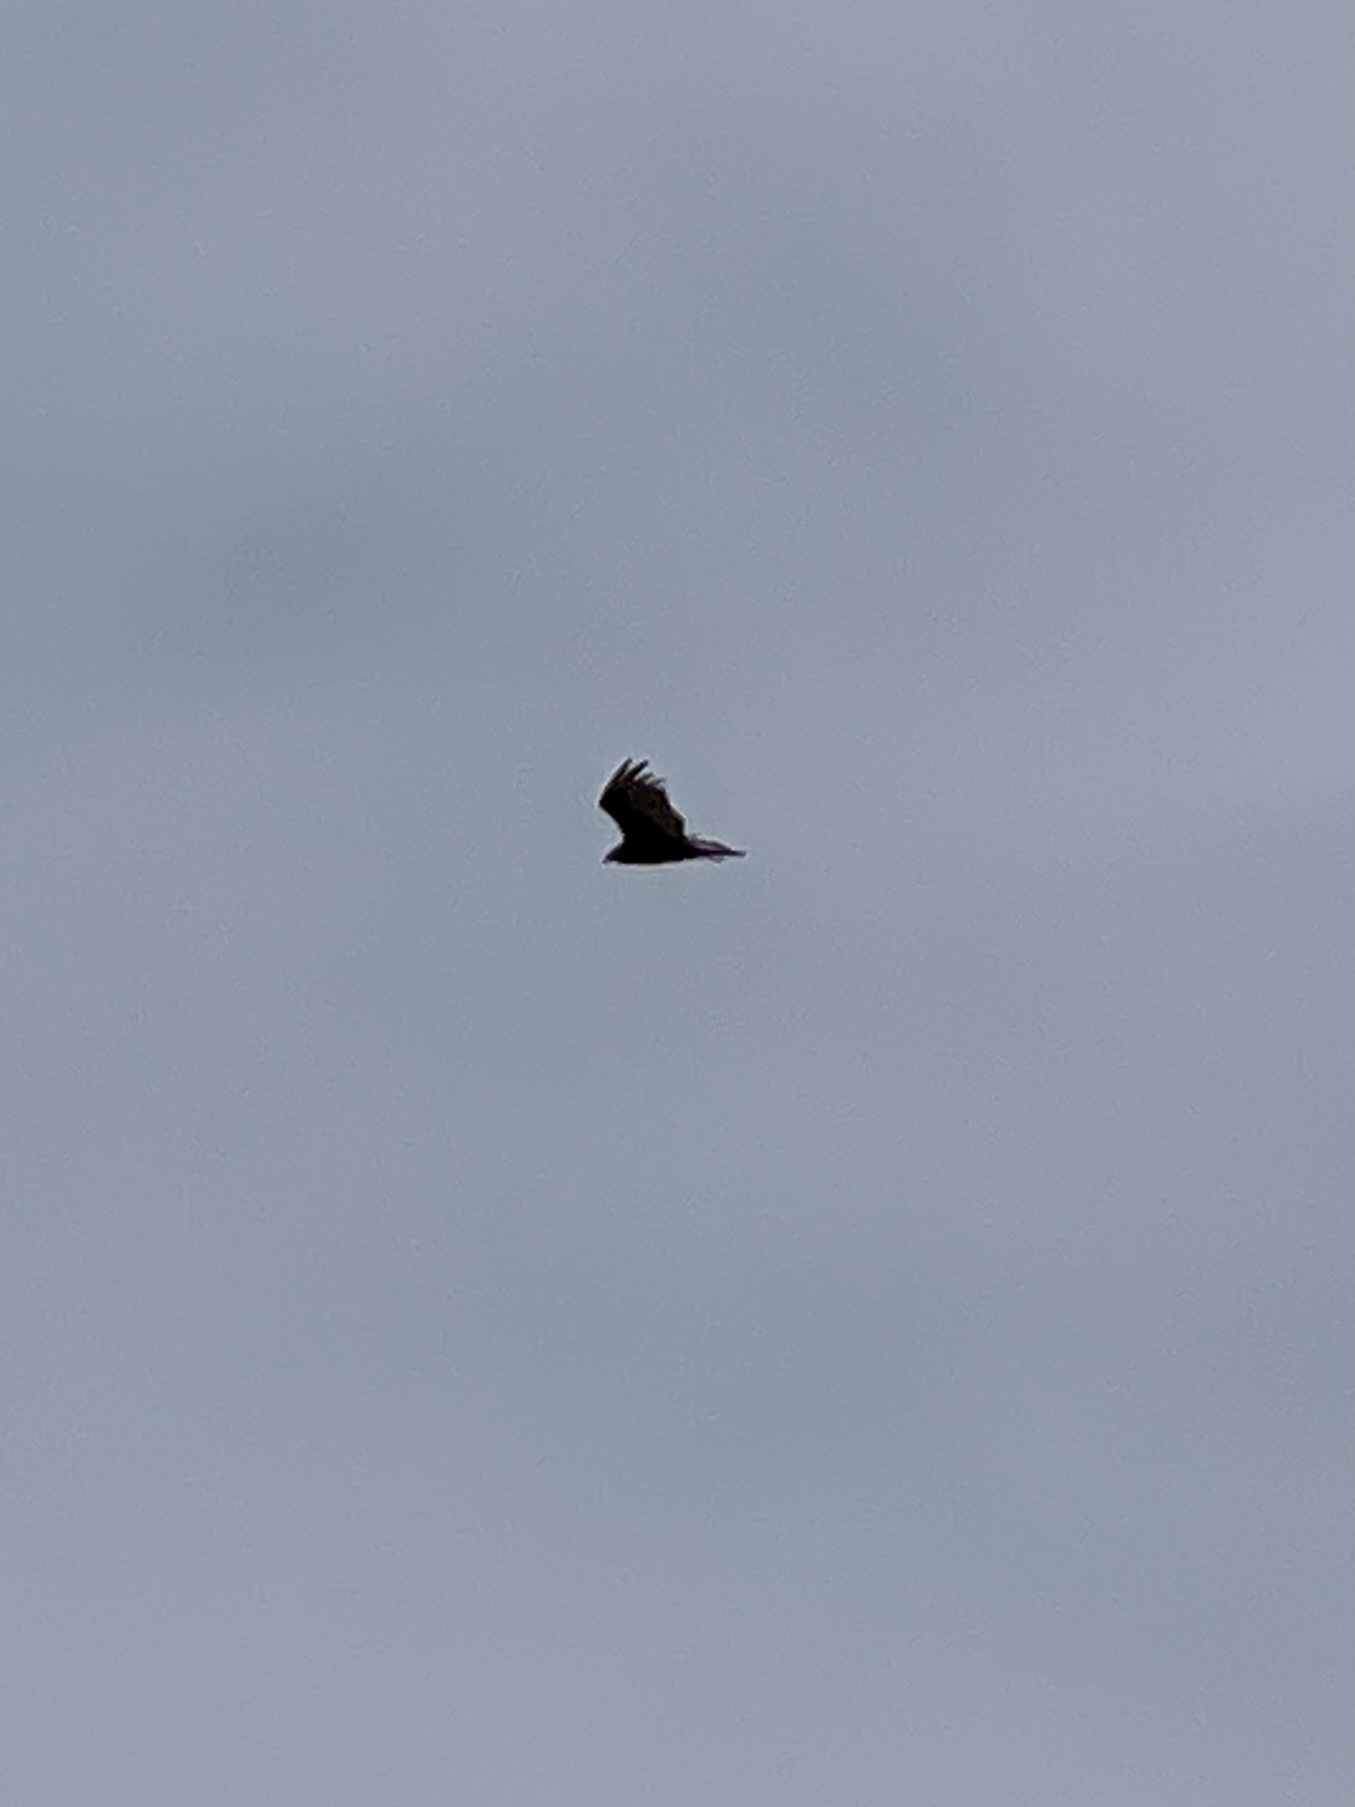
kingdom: Animalia
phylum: Chordata
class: Aves
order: Accipitriformes
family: Cathartidae
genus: Cathartes
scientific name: Cathartes aura
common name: Turkey vulture
